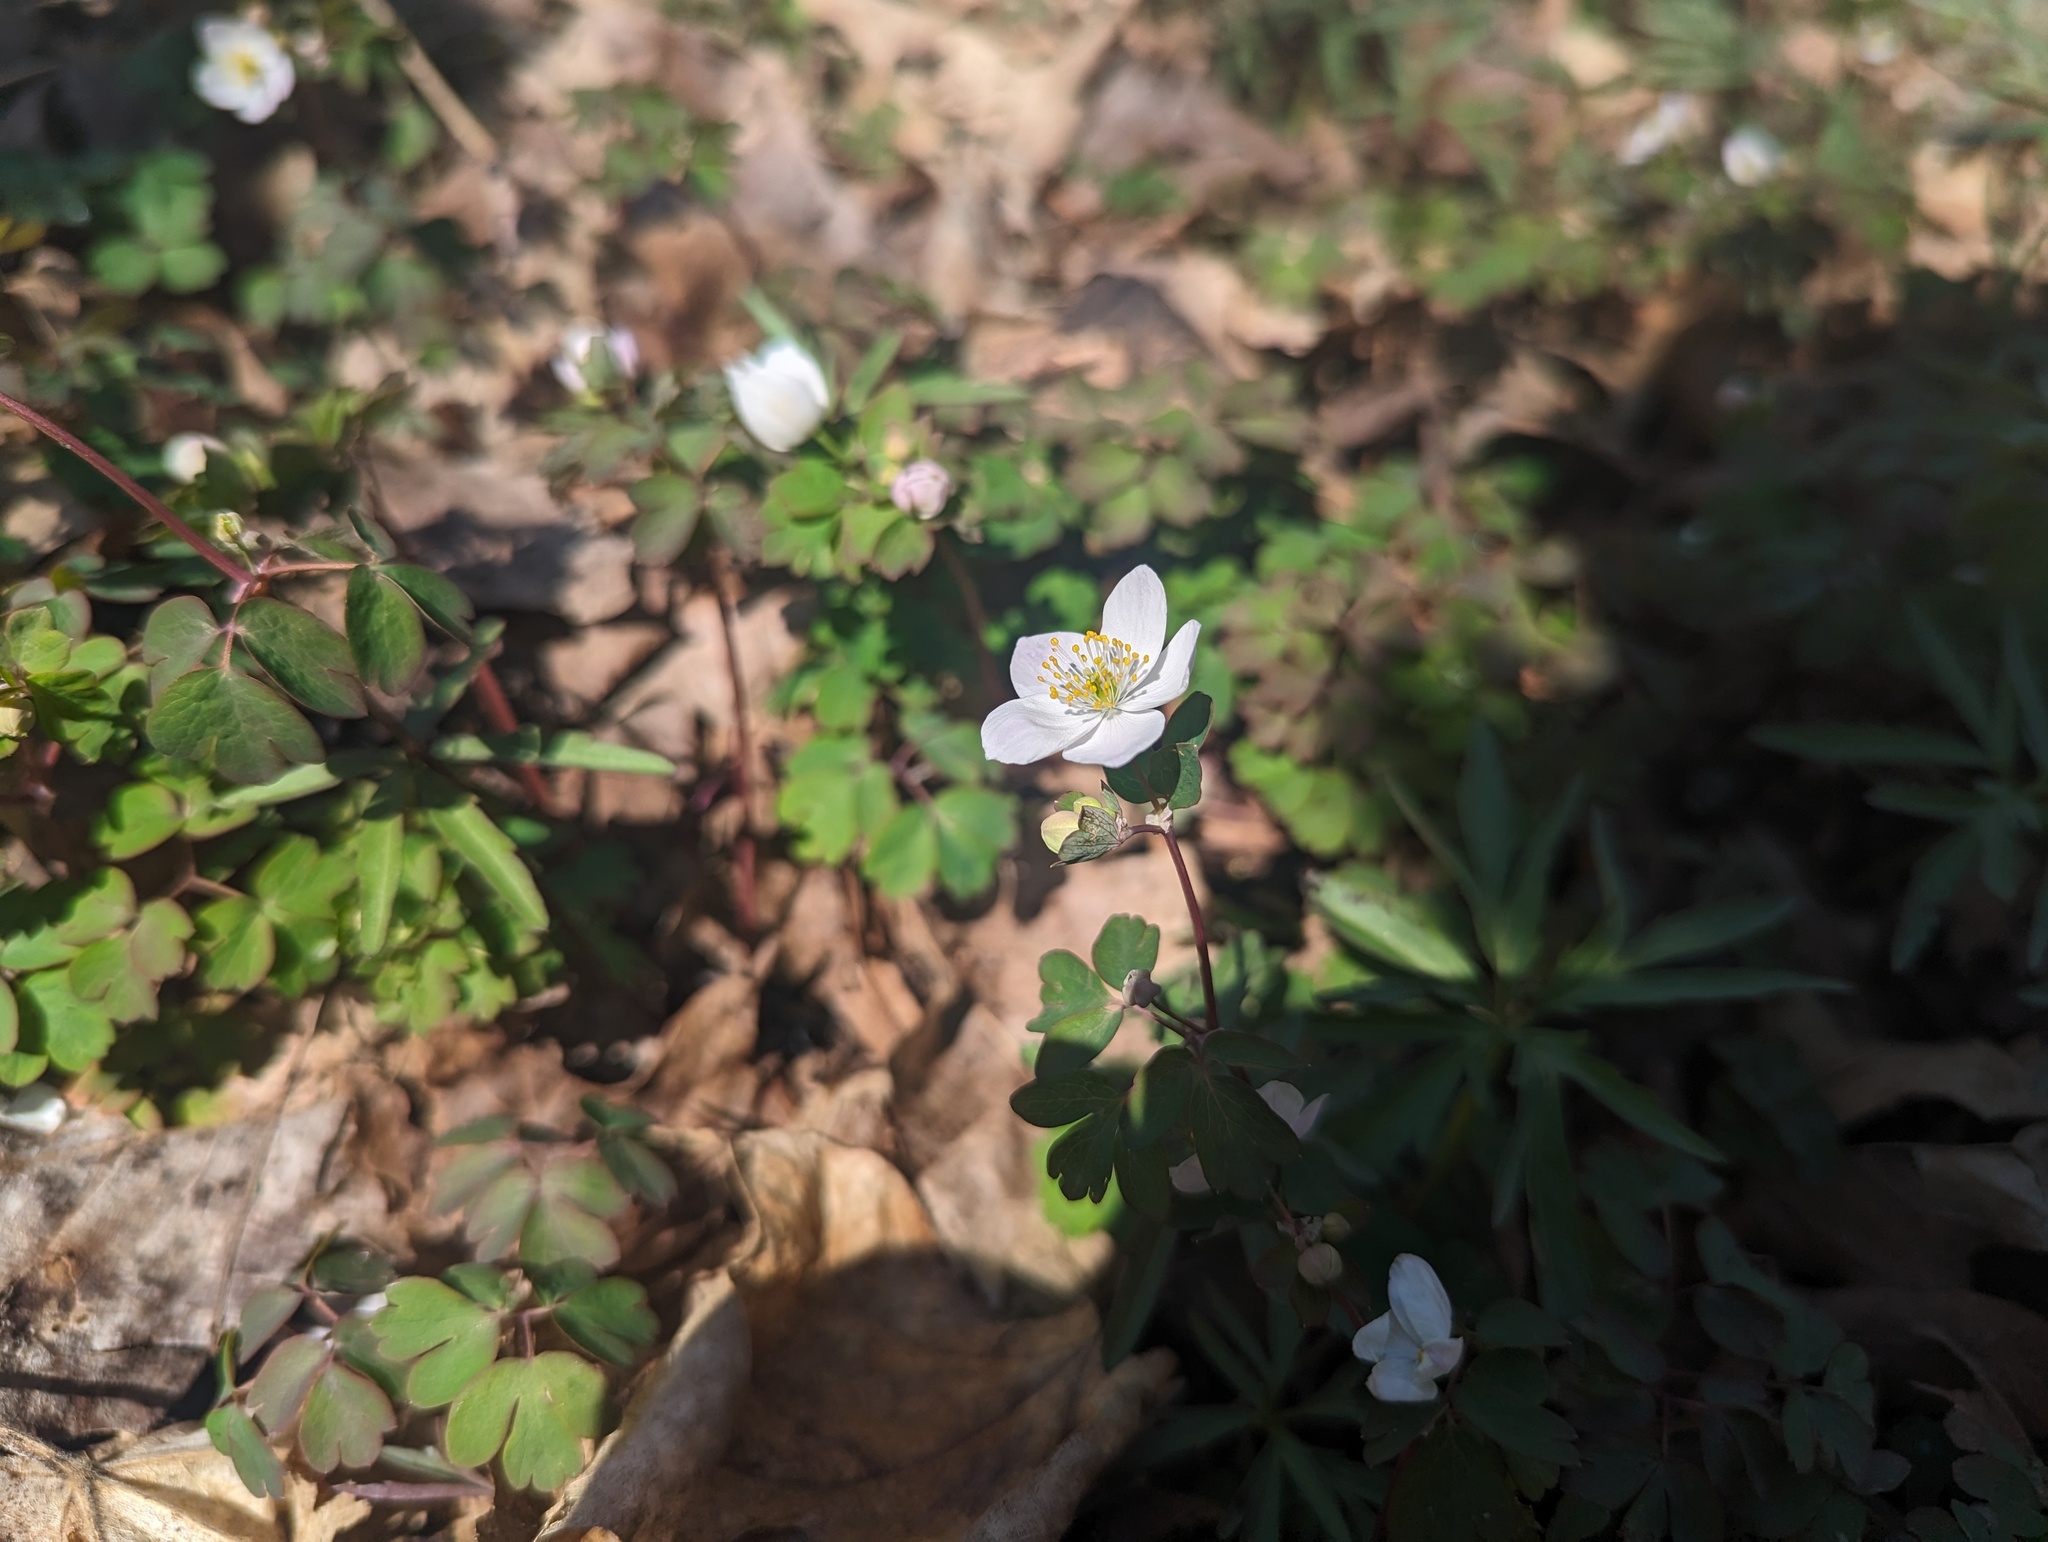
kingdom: Plantae
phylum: Tracheophyta
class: Magnoliopsida
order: Ranunculales
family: Ranunculaceae
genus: Enemion
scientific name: Enemion biternatum
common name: Eastern false rue-anemone
